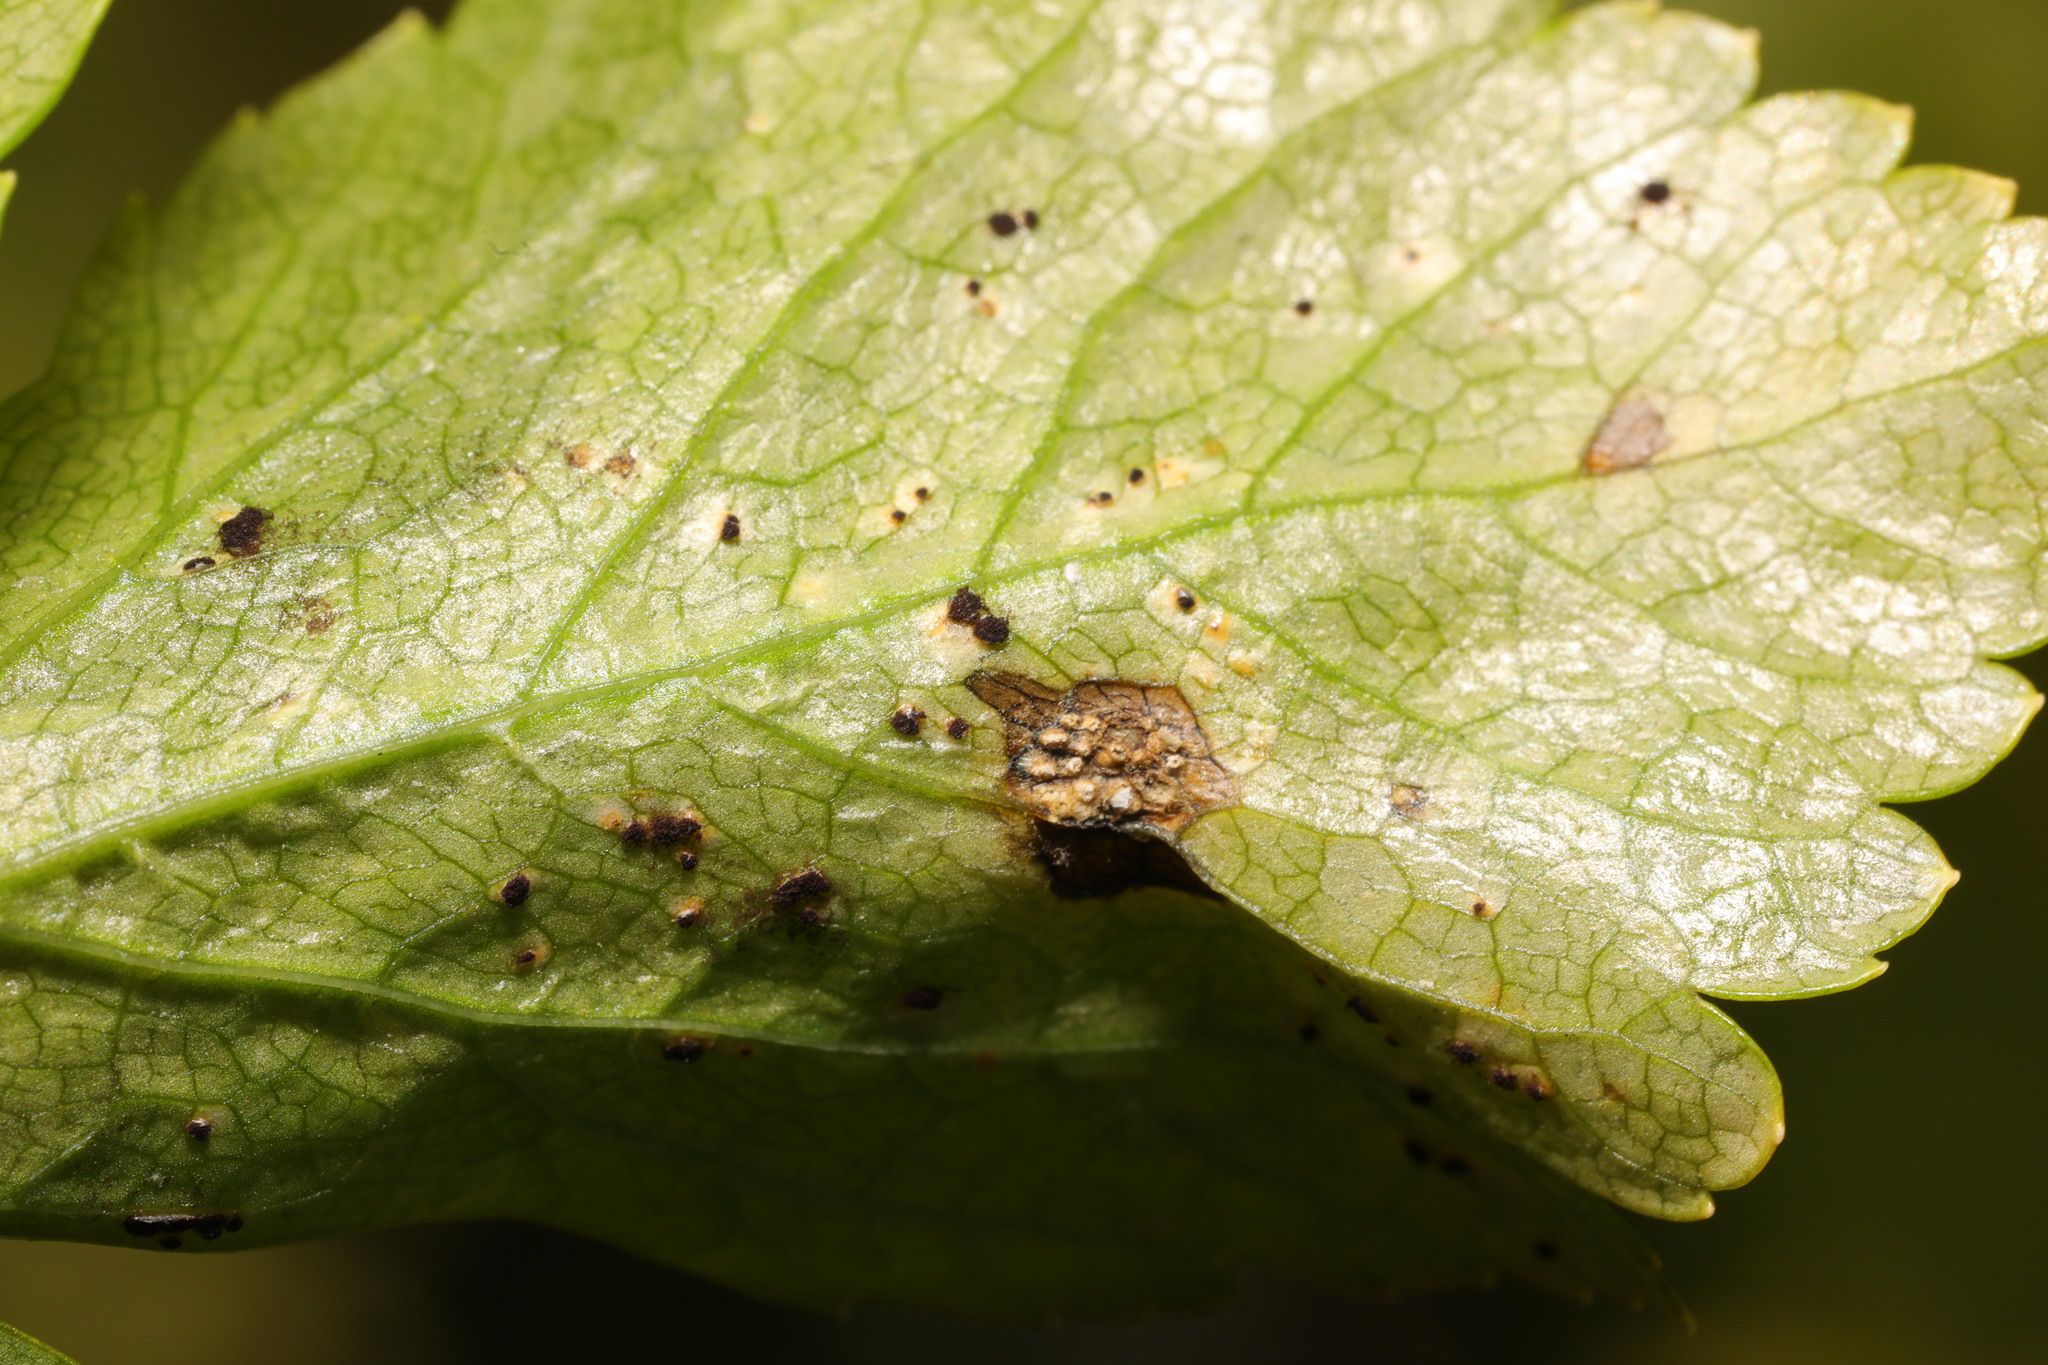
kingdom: Fungi
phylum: Basidiomycota
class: Pucciniomycetes
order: Pucciniales
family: Pucciniaceae
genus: Puccinia
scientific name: Puccinia smyrnii
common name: Alexanders rust
